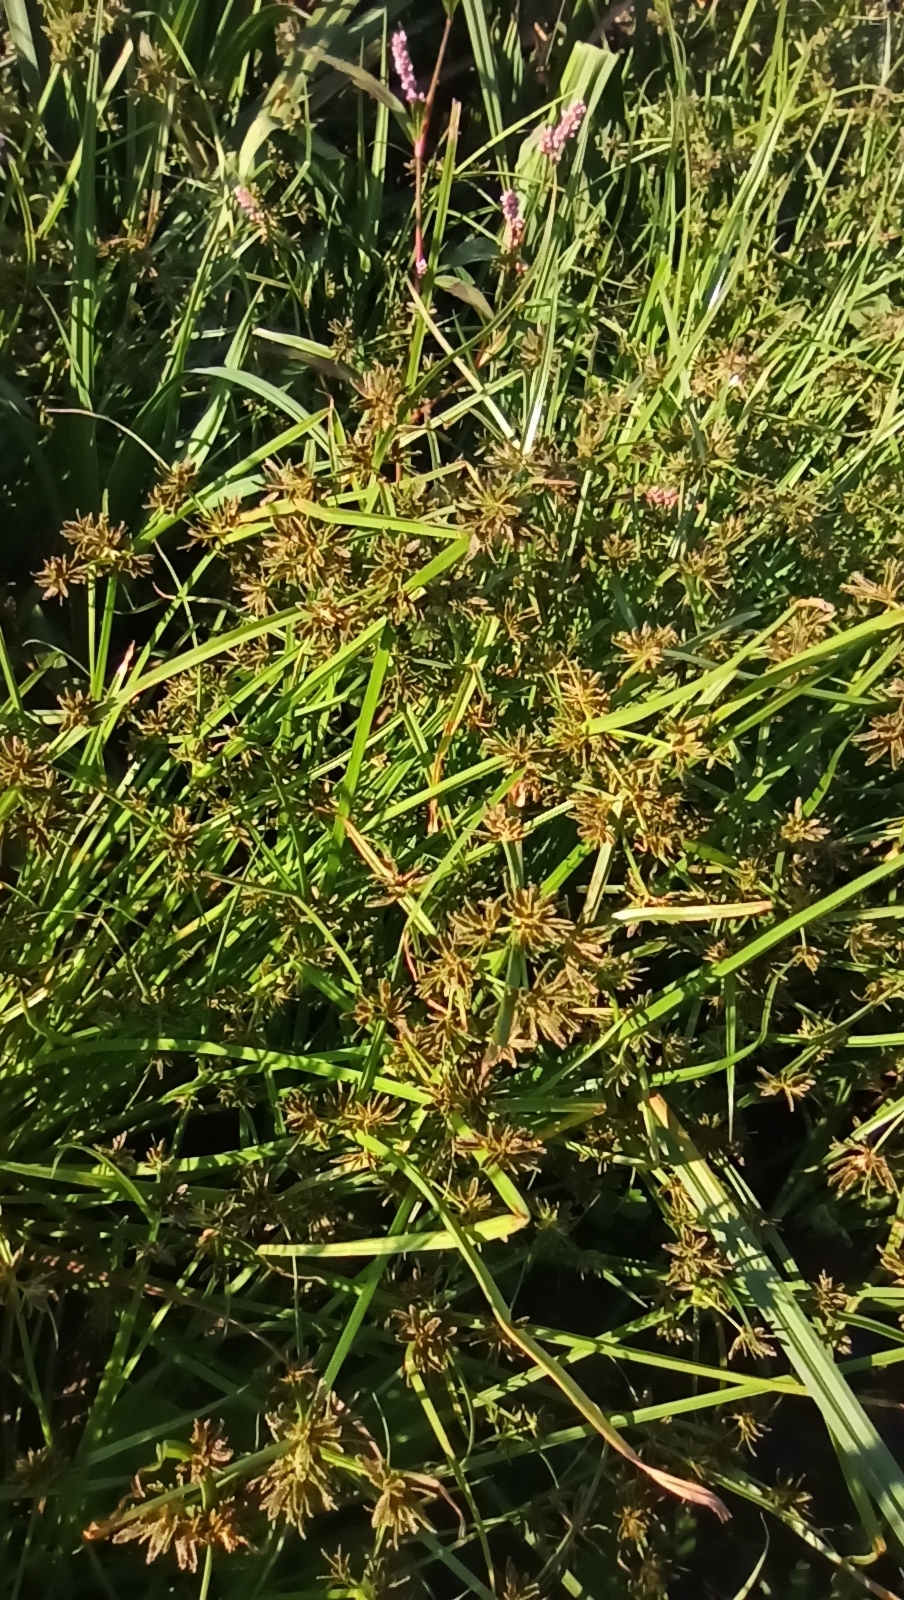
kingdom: Plantae
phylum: Tracheophyta
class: Liliopsida
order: Poales
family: Cyperaceae
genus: Cyperus
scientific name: Cyperus fuscus
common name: Brown galingale
